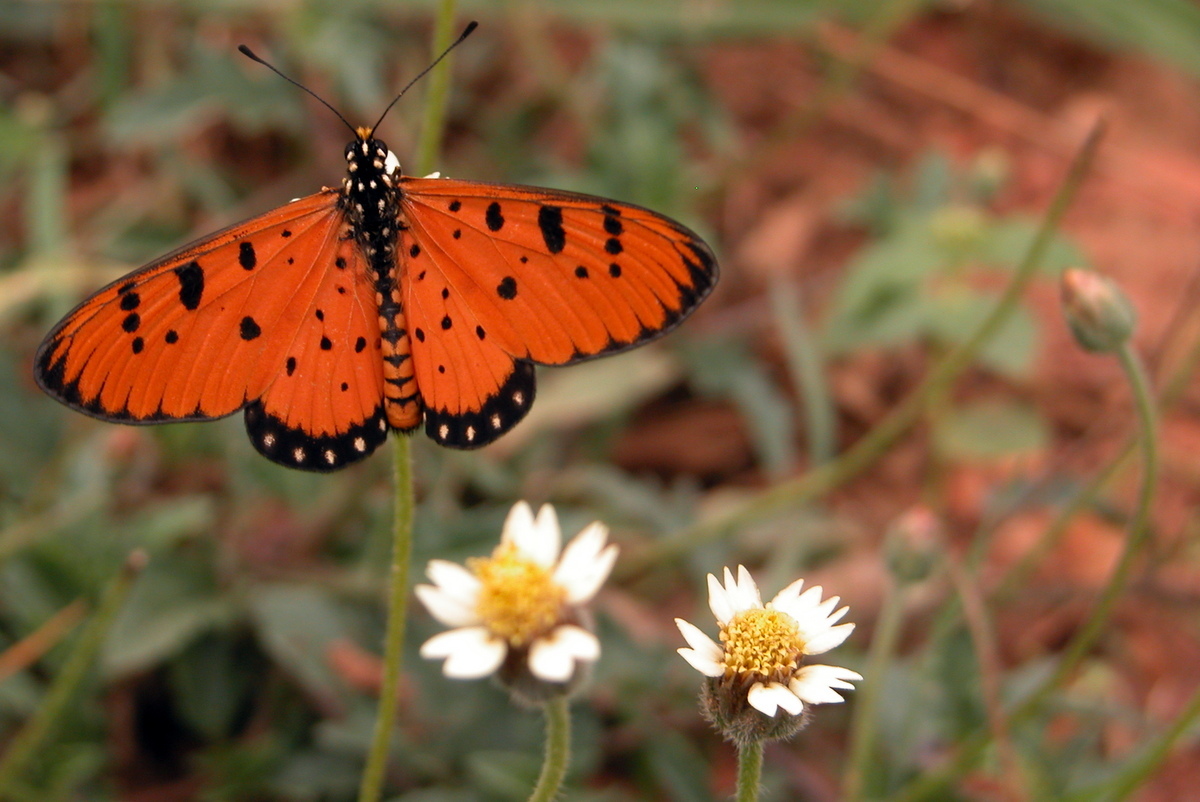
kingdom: Animalia
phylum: Arthropoda
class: Insecta
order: Lepidoptera
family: Nymphalidae
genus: Acraea
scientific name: Acraea terpsicore
